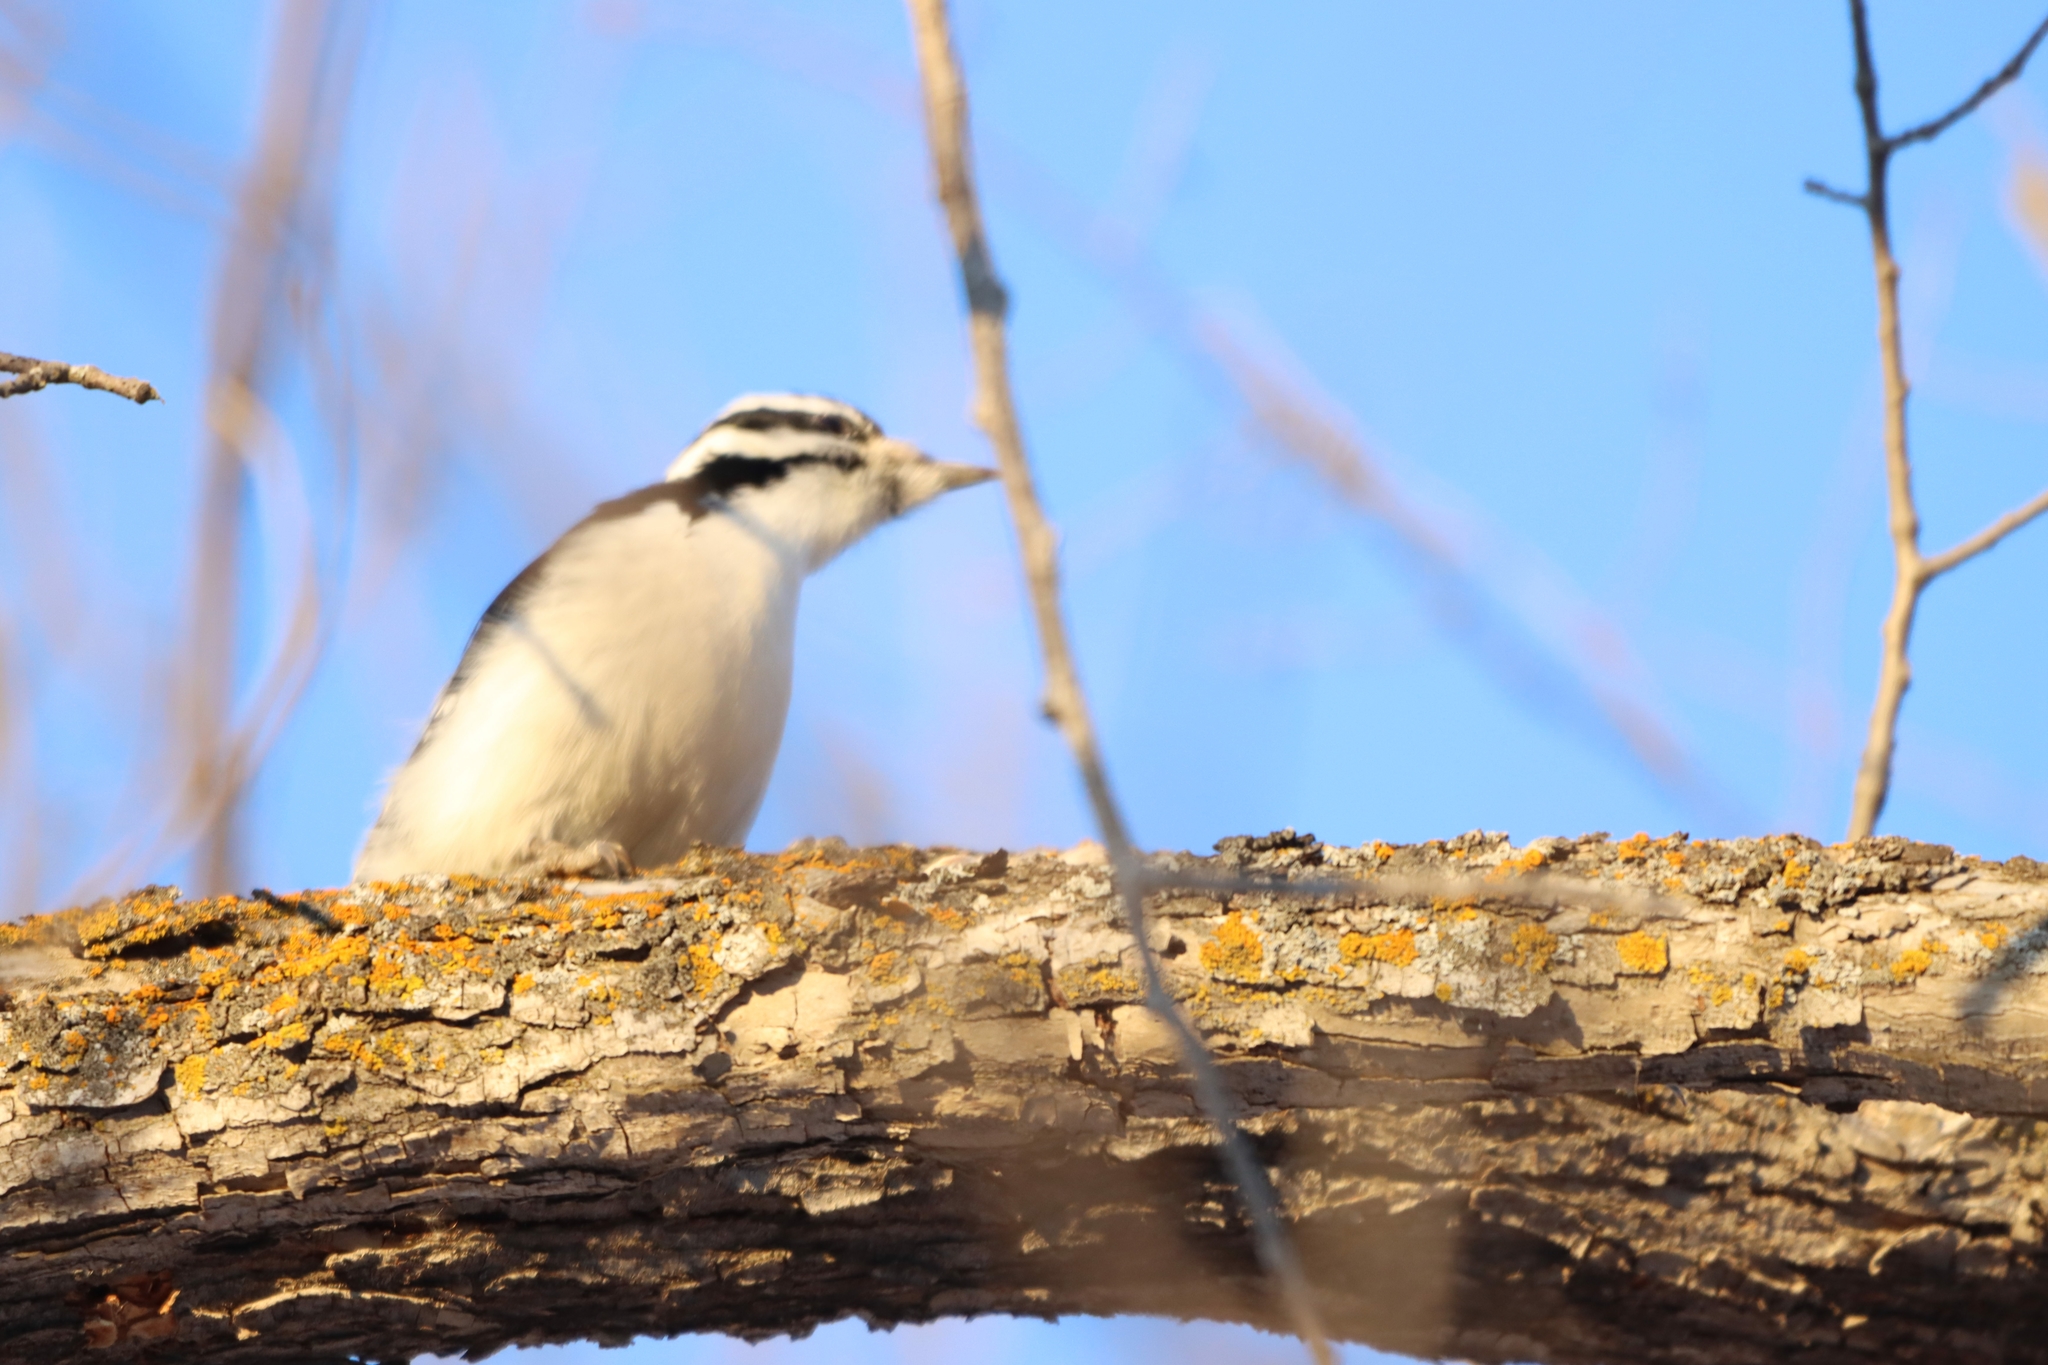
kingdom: Animalia
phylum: Chordata
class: Aves
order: Piciformes
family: Picidae
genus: Dryobates
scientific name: Dryobates pubescens
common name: Downy woodpecker
